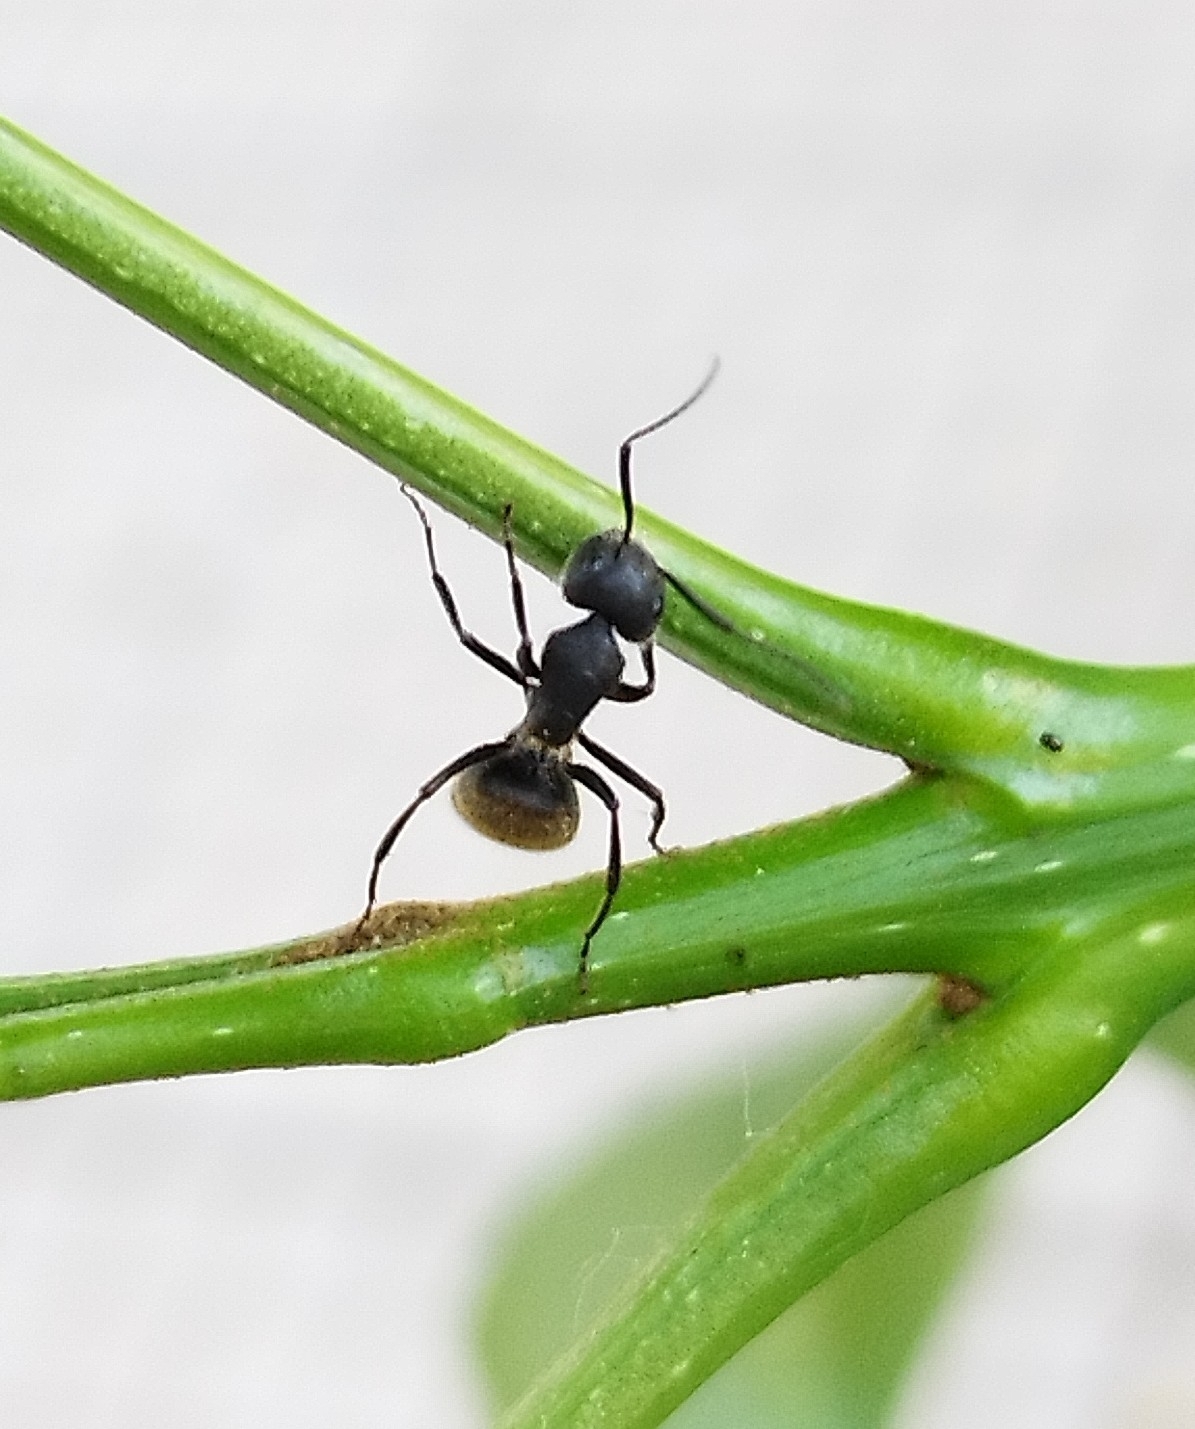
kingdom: Animalia
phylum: Arthropoda
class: Insecta
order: Hymenoptera
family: Formicidae
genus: Camponotus
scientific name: Camponotus mus
